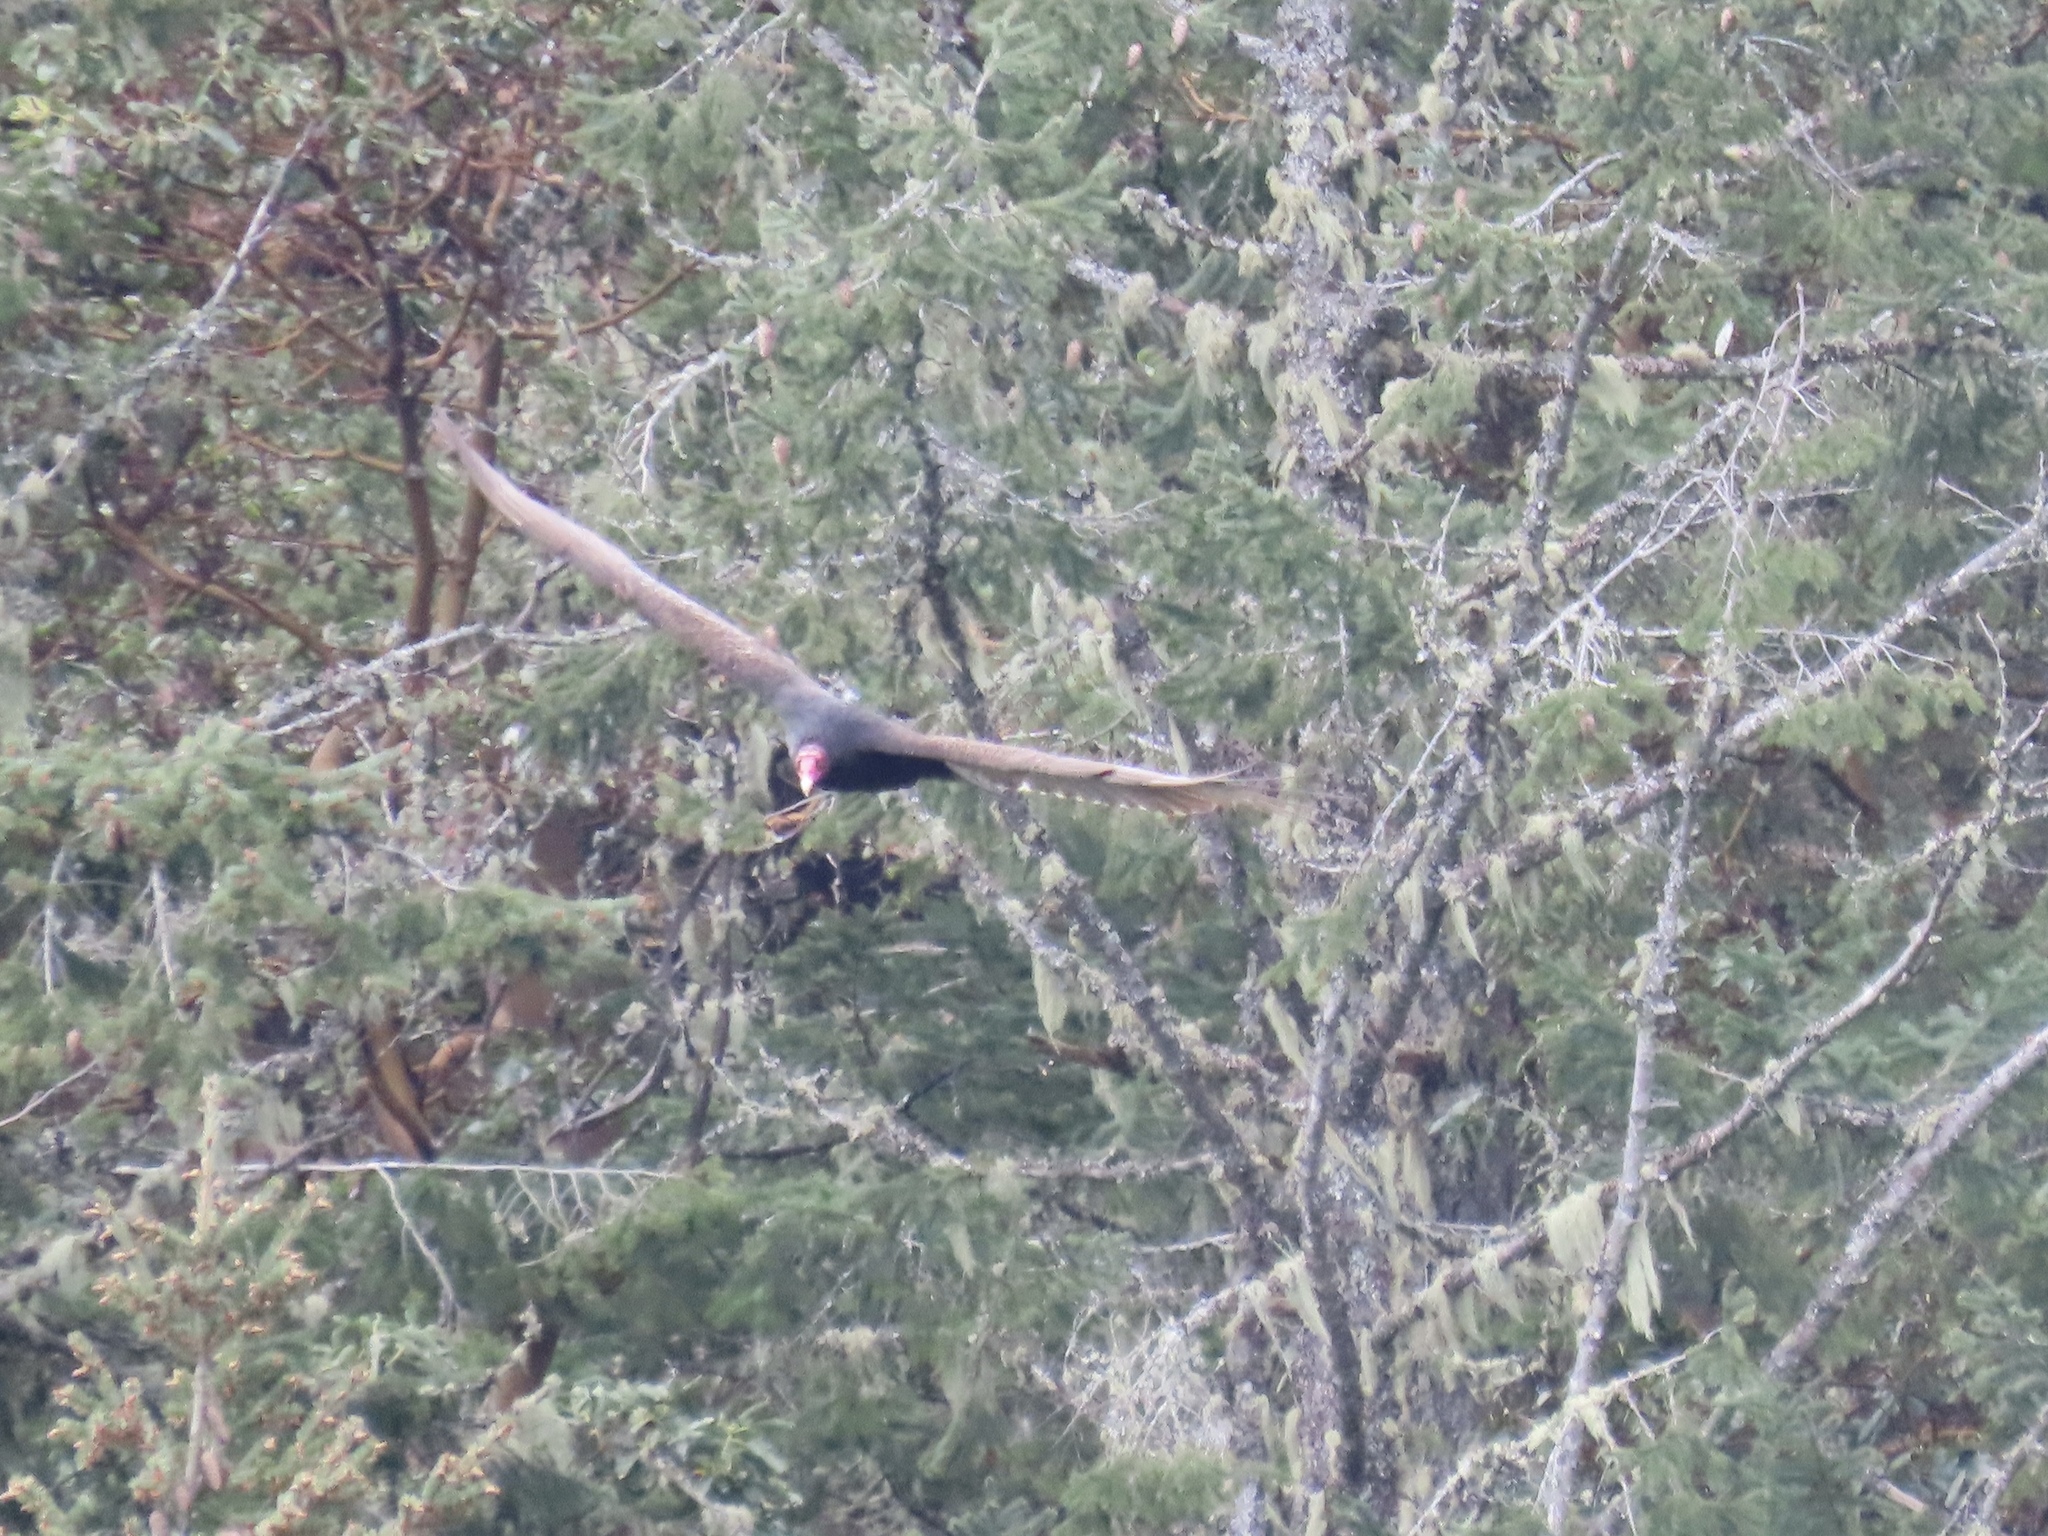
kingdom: Animalia
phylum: Chordata
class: Aves
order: Accipitriformes
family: Cathartidae
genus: Cathartes
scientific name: Cathartes aura
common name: Turkey vulture
